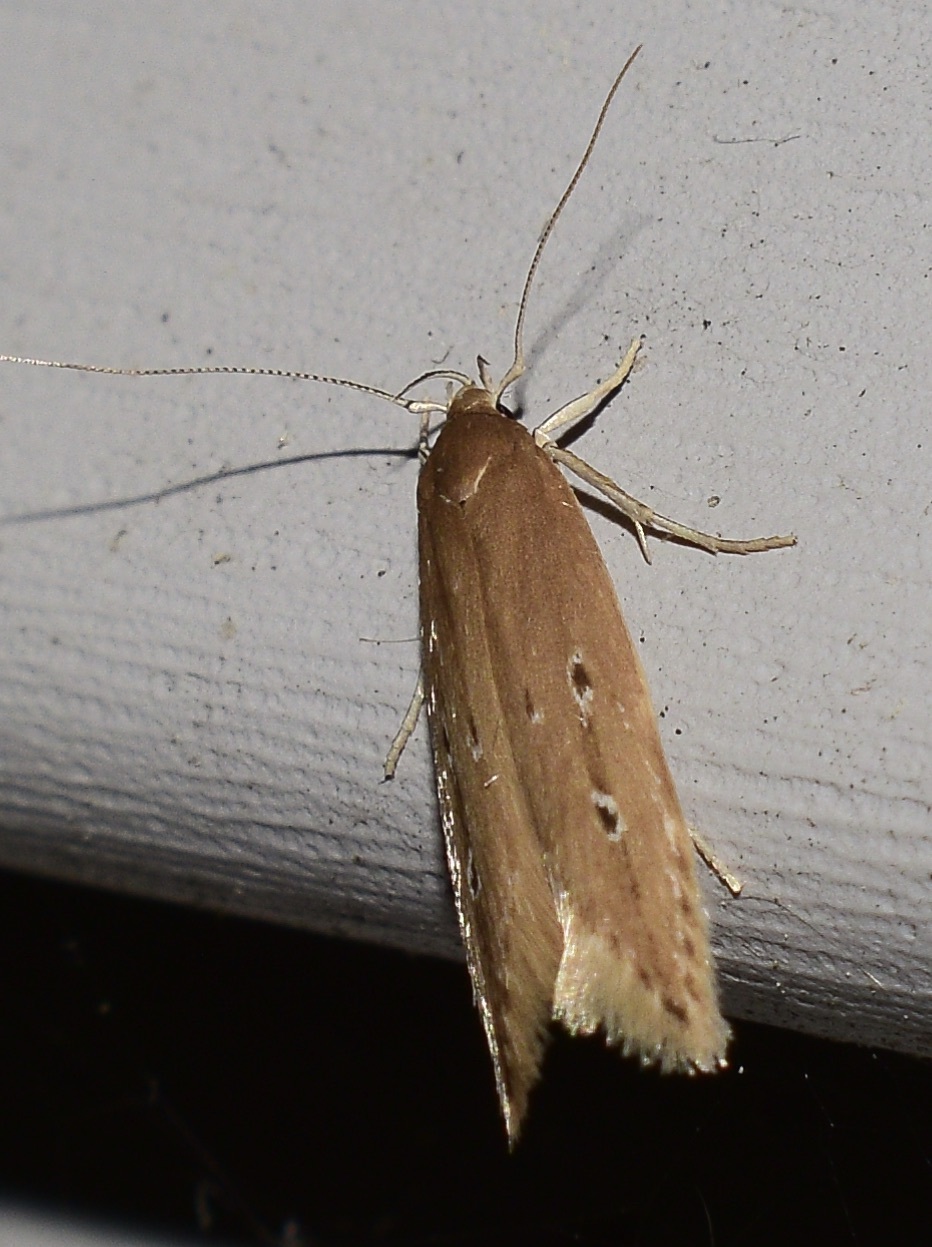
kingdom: Animalia
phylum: Arthropoda
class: Insecta
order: Lepidoptera
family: Cosmopterigidae
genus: Limnaecia
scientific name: Limnaecia phragmitella
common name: Bulrush cosmet
